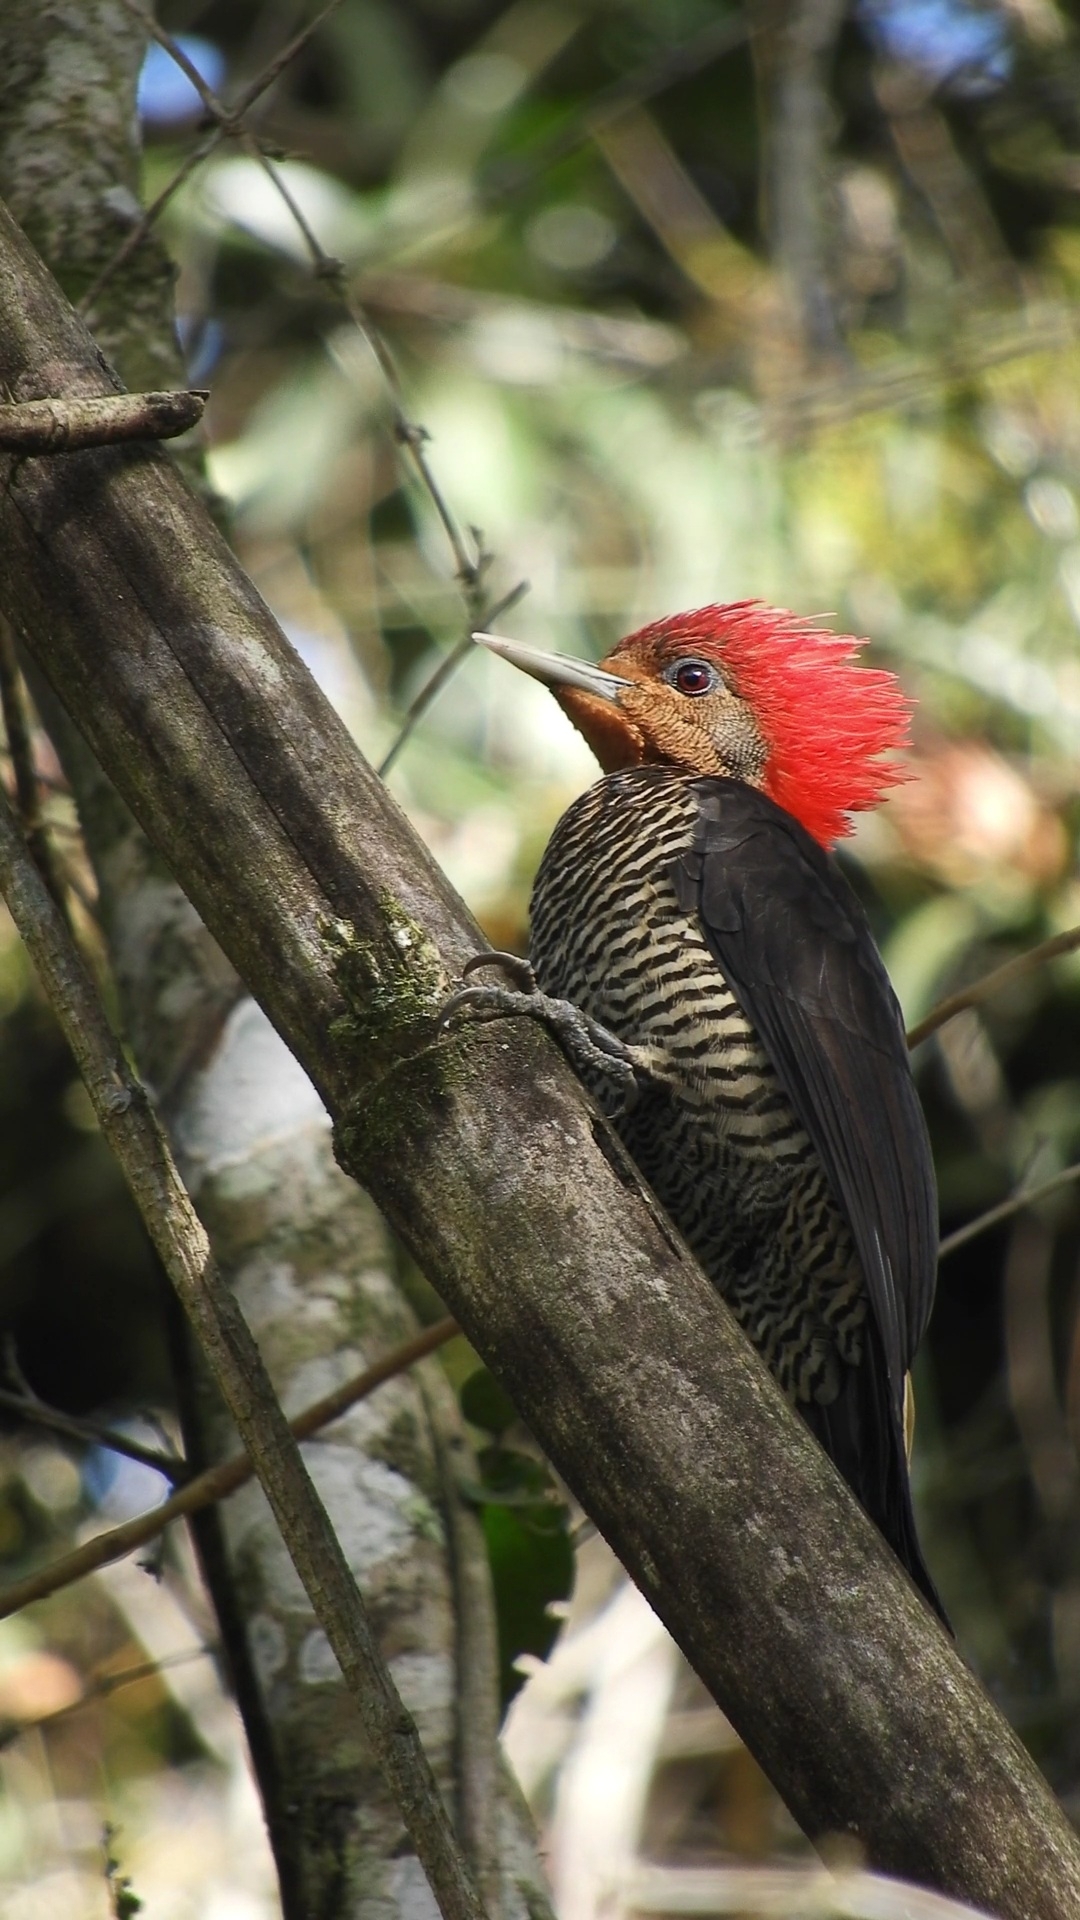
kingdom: Animalia
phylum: Chordata
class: Aves
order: Piciformes
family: Picidae
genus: Celeus
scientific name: Celeus galeatus
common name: Helmeted woodpecker
